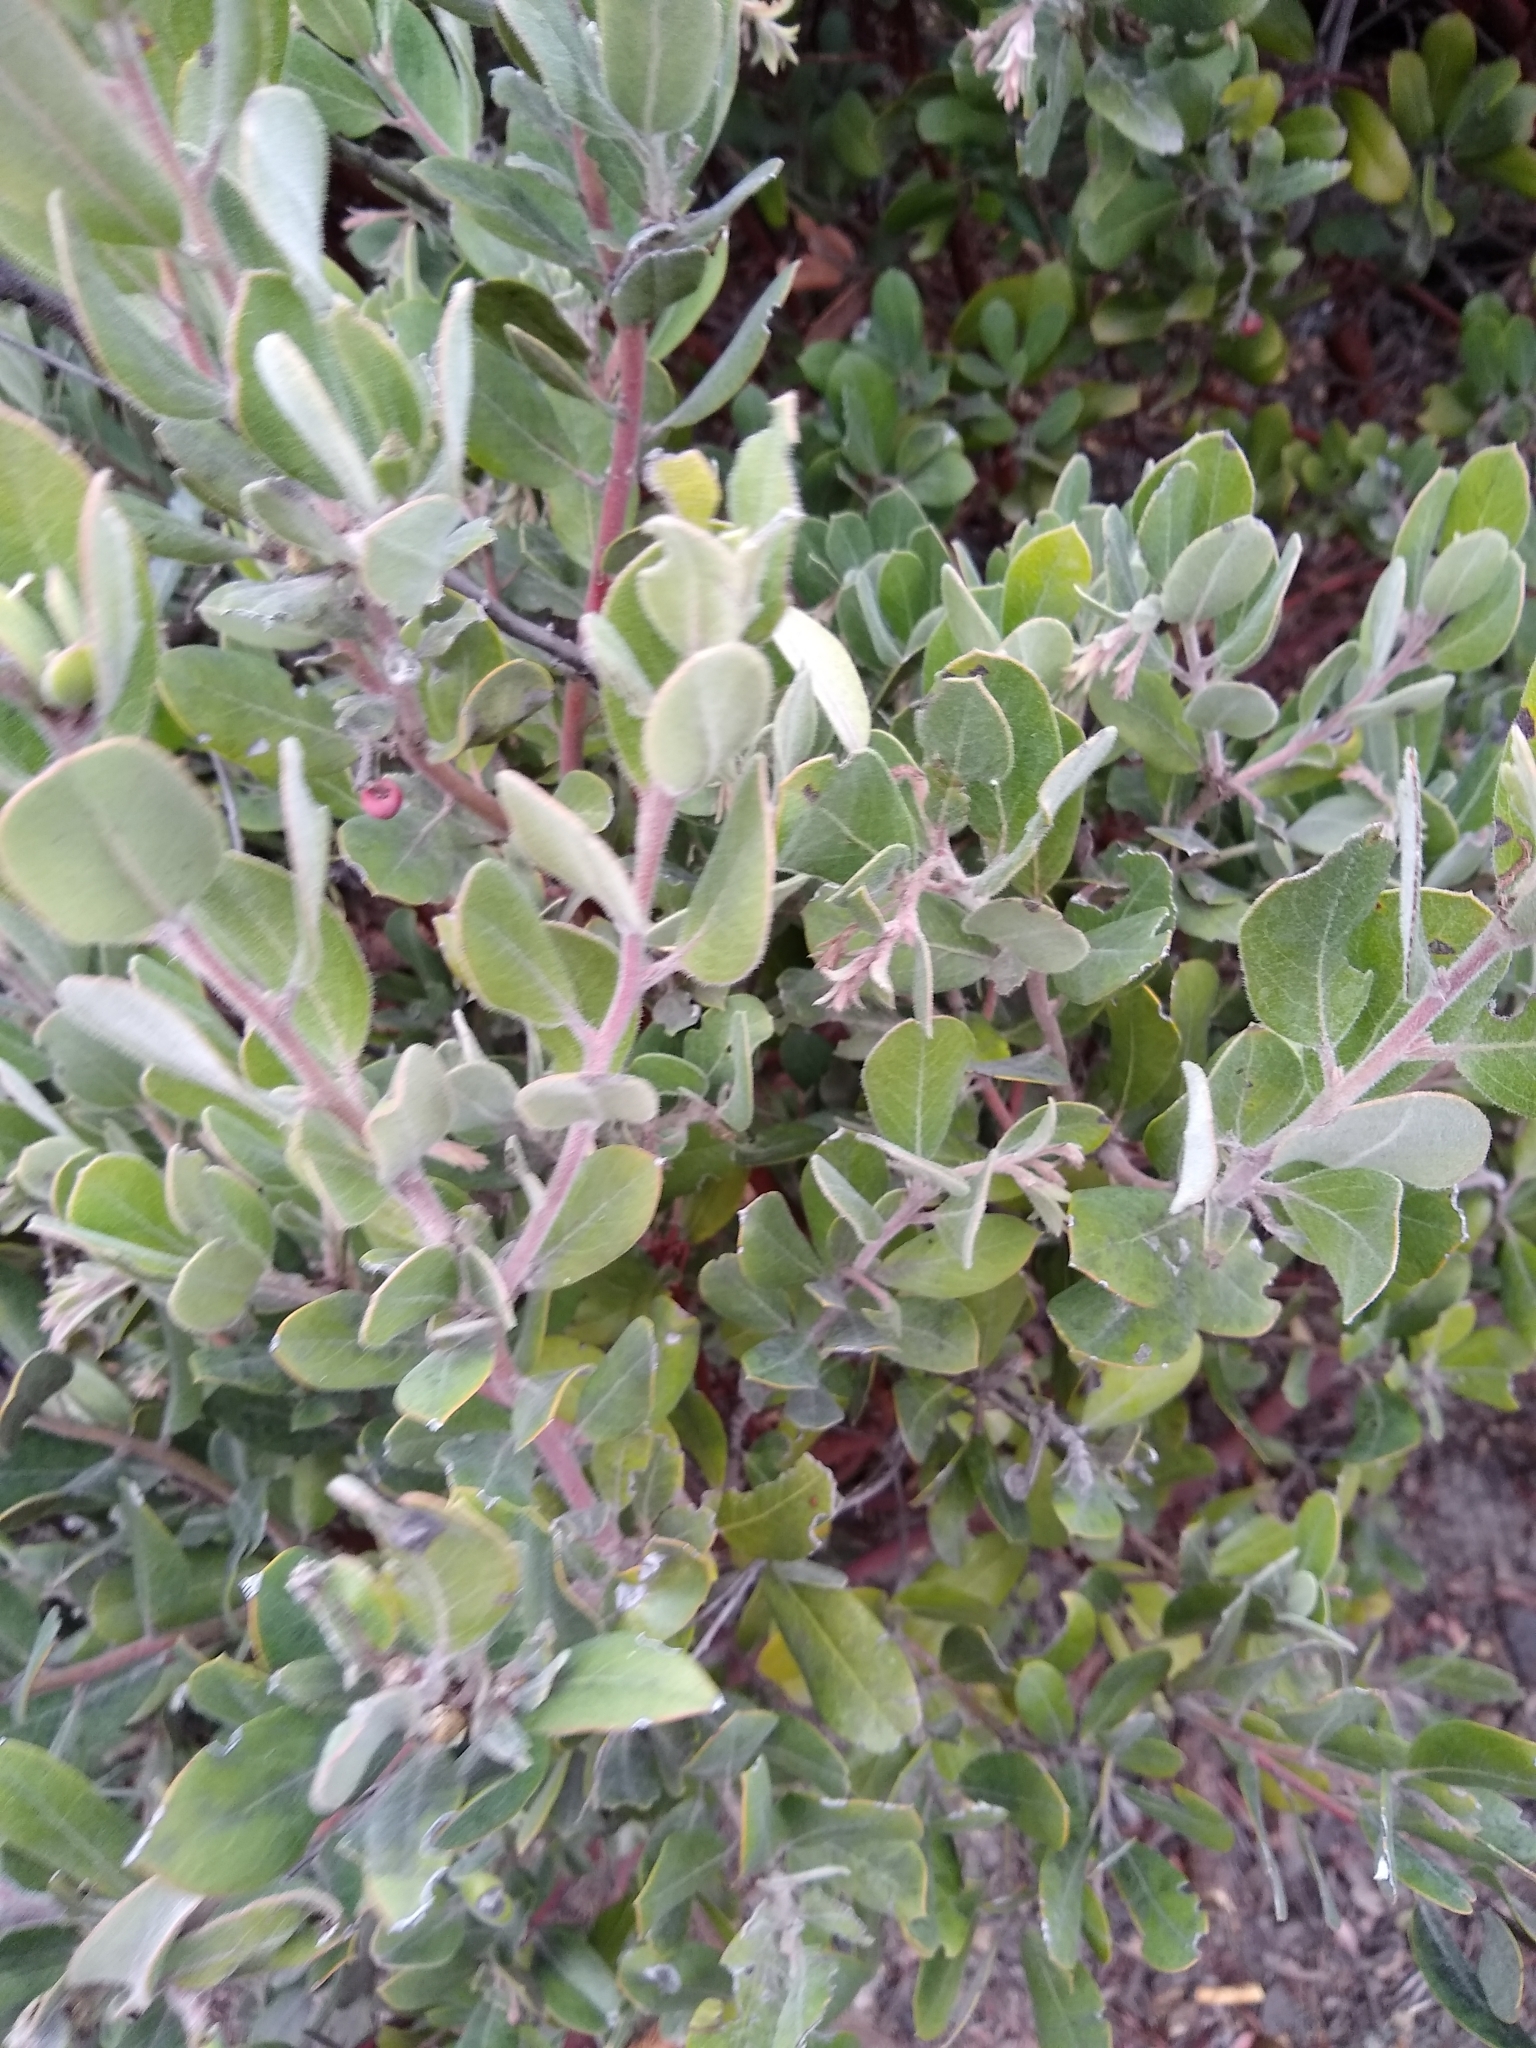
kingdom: Plantae
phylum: Tracheophyta
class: Magnoliopsida
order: Ericales
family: Ericaceae
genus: Arctostaphylos
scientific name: Arctostaphylos crustacea
